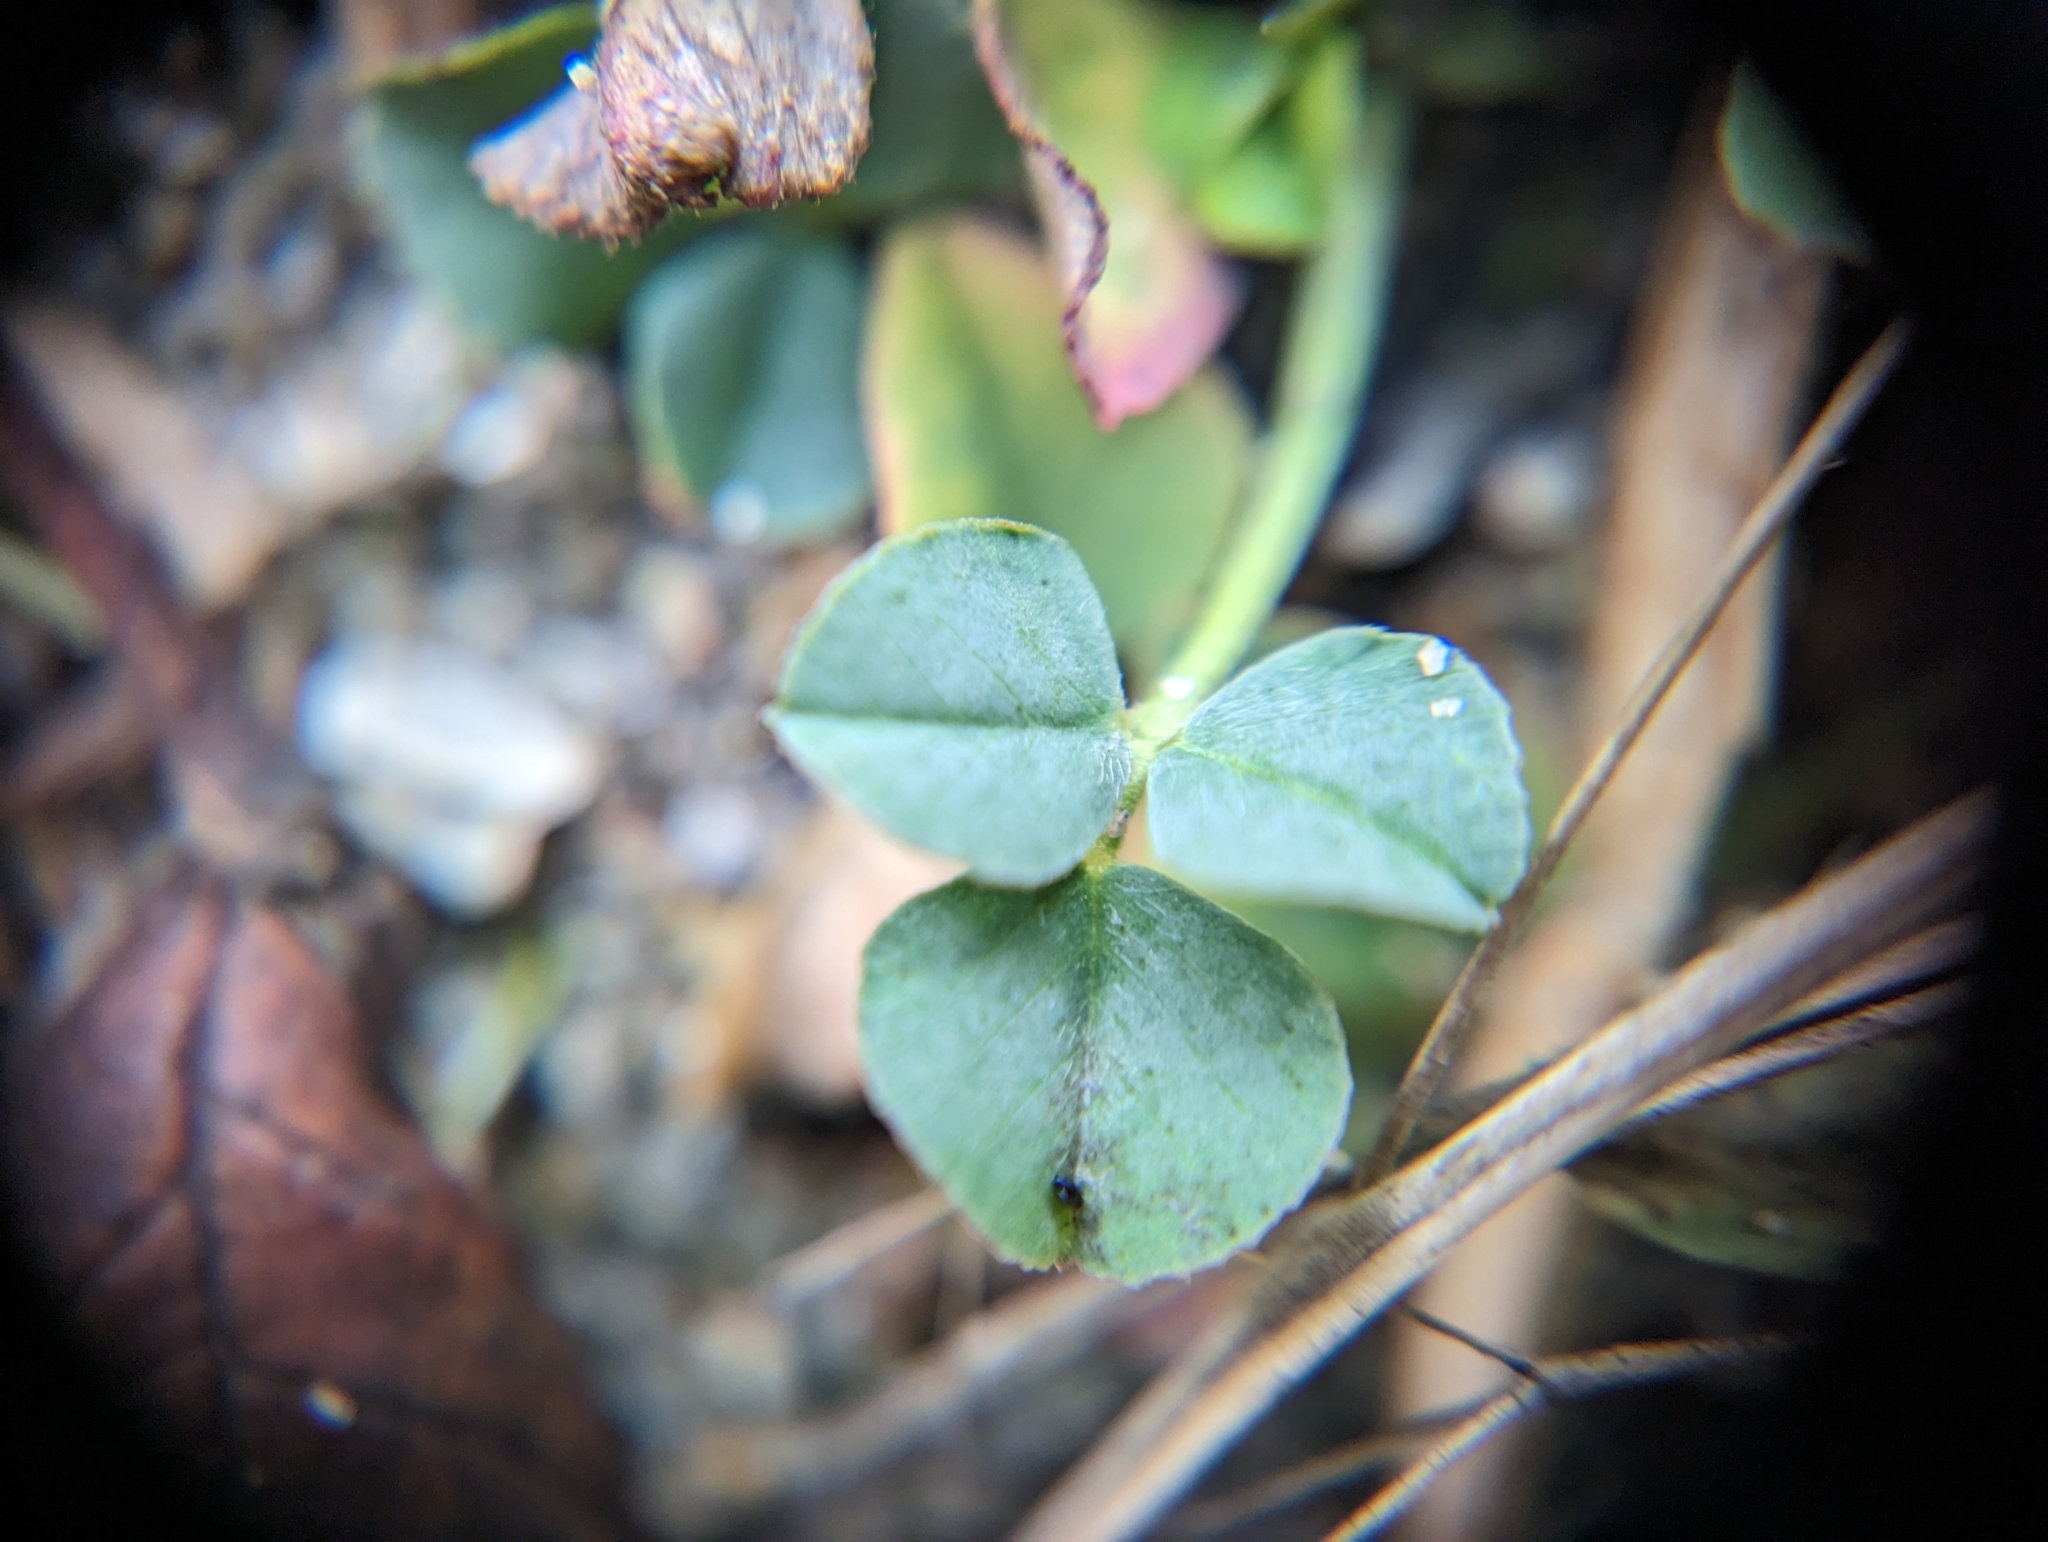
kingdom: Plantae
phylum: Tracheophyta
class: Magnoliopsida
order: Fabales
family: Fabaceae
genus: Medicago
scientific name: Medicago lupulina
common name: Black medick
